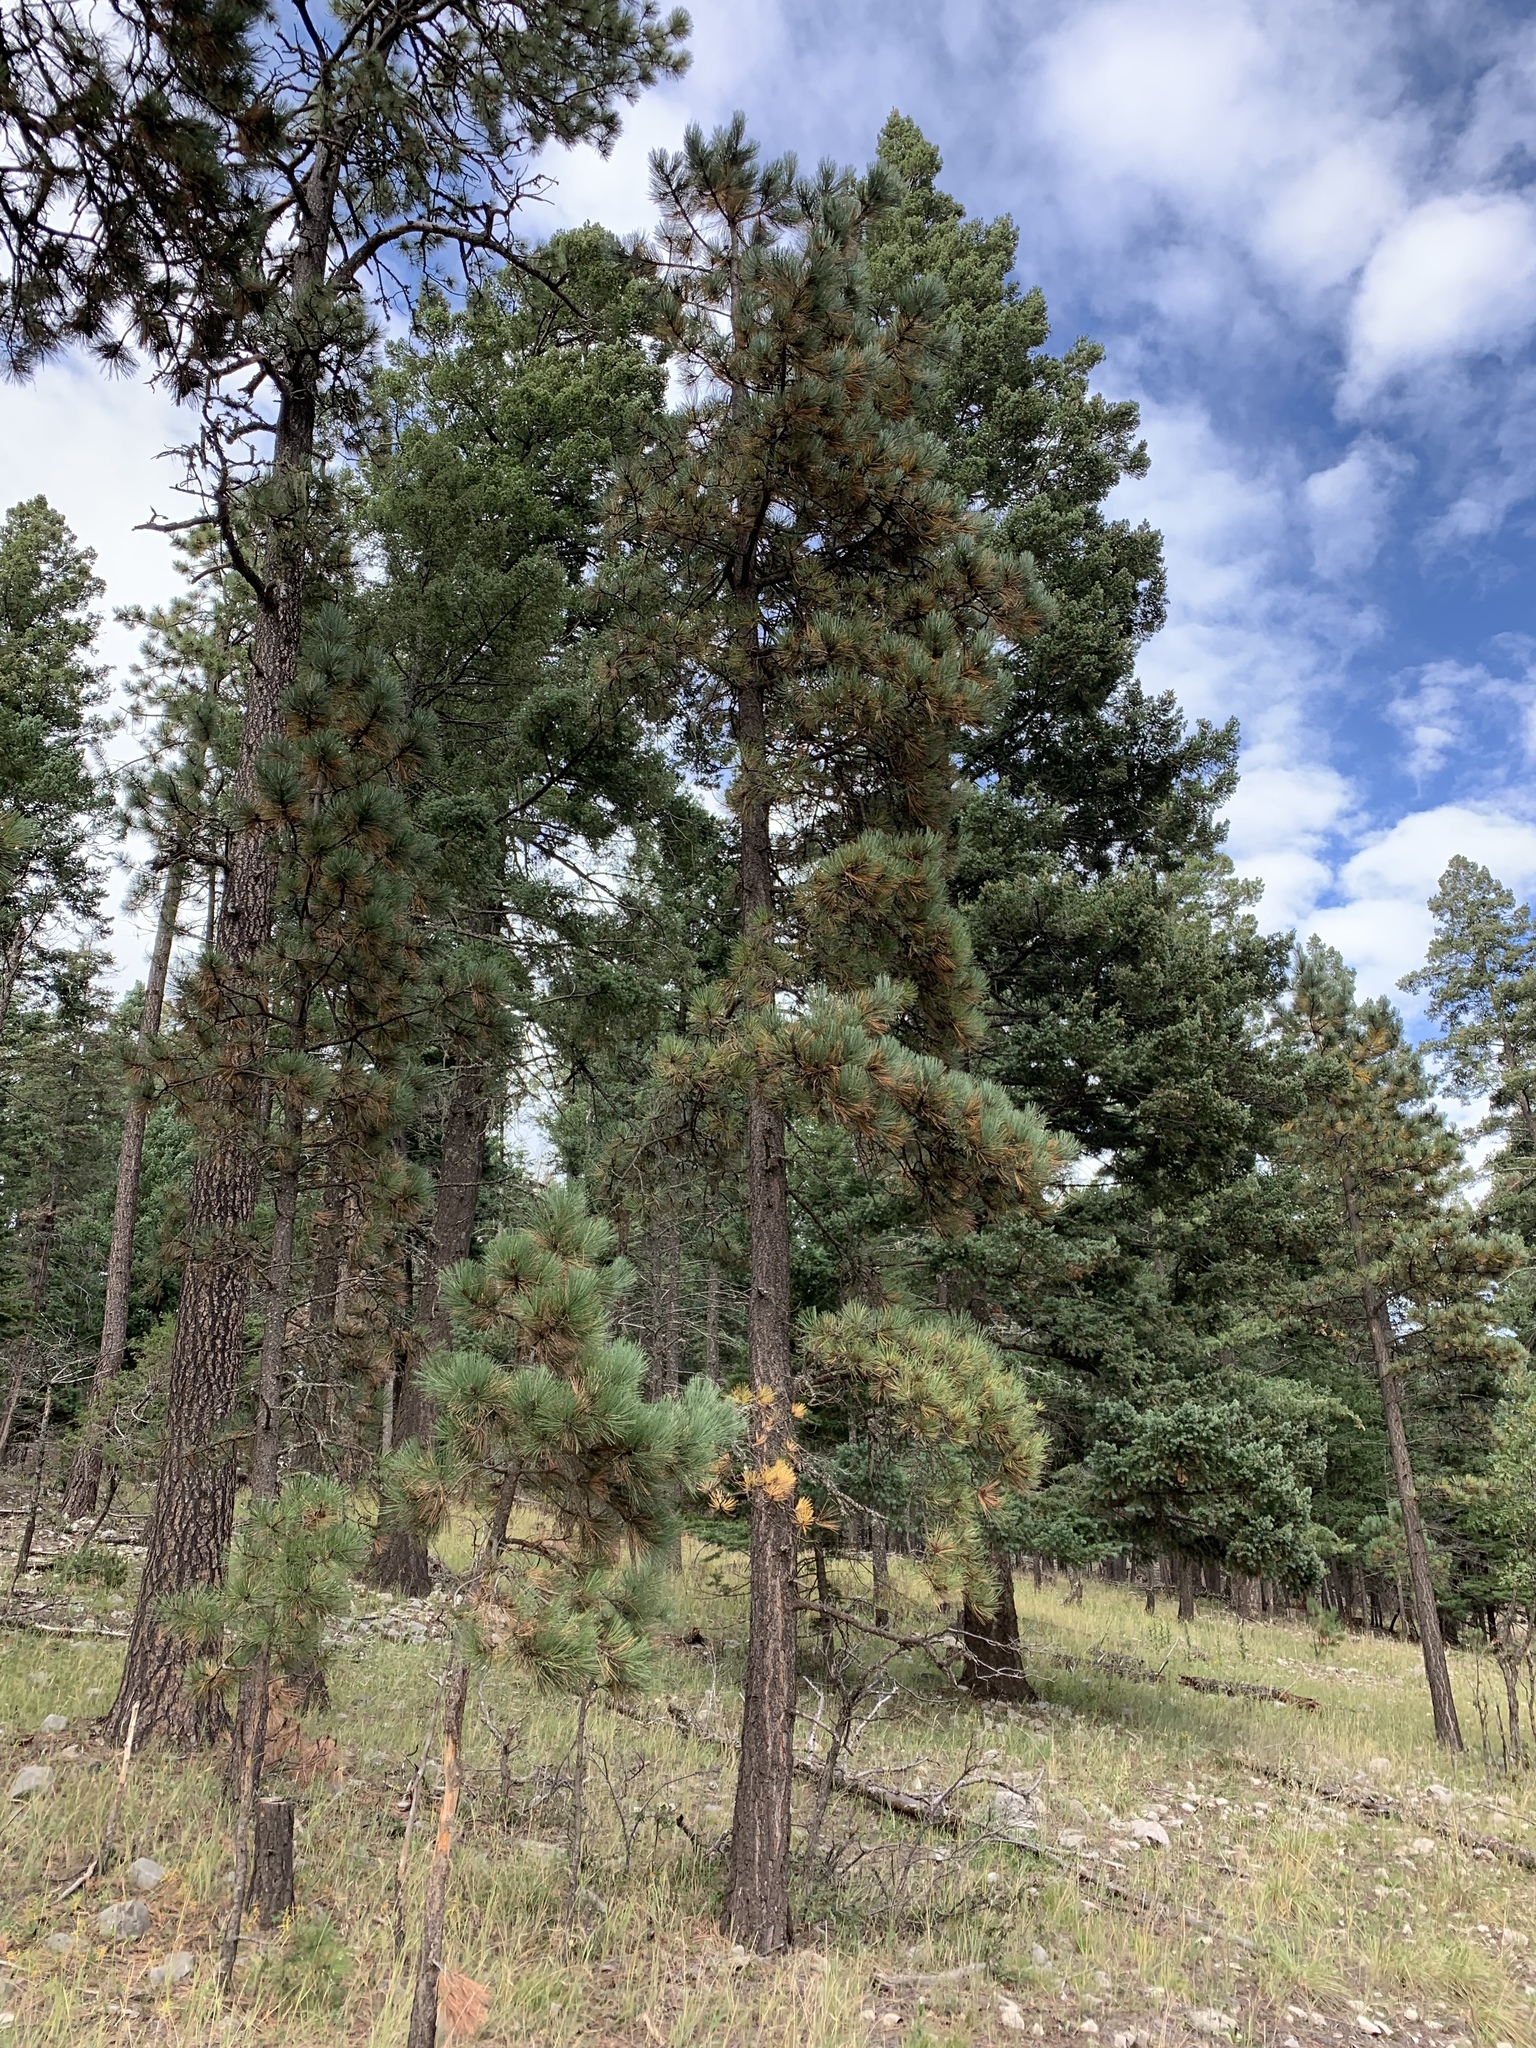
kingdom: Plantae
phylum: Tracheophyta
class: Pinopsida
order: Pinales
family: Pinaceae
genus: Pinus
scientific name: Pinus ponderosa
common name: Western yellow-pine
